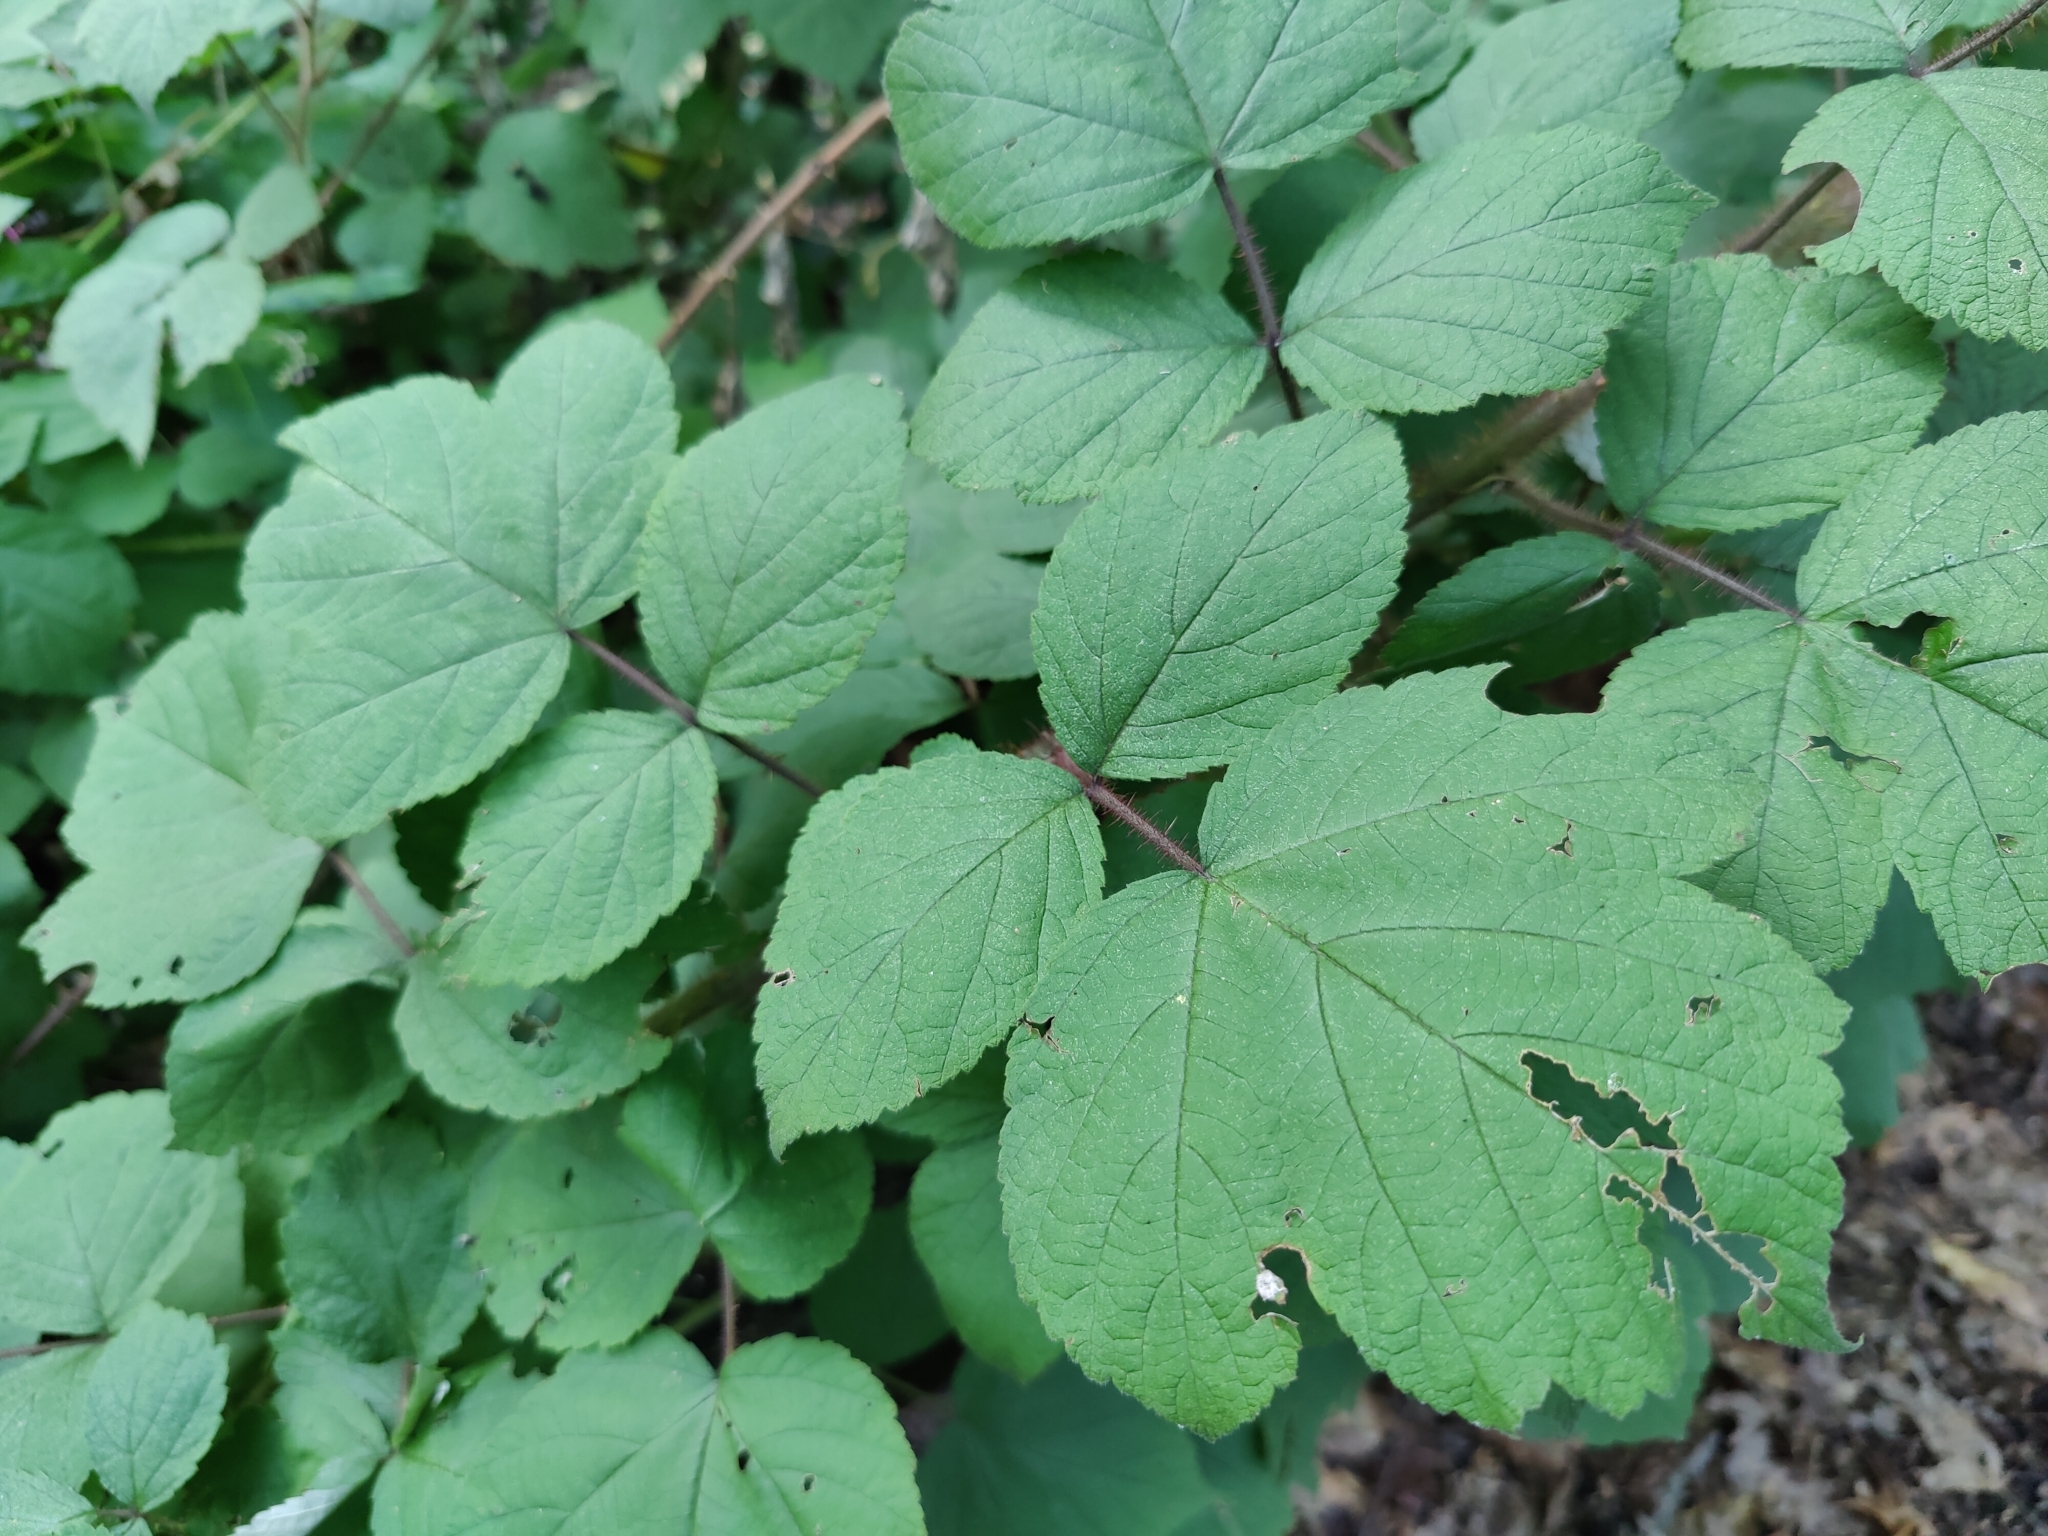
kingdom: Plantae
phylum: Tracheophyta
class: Magnoliopsida
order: Rosales
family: Rosaceae
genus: Rubus
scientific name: Rubus phoenicolasius
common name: Japanese wineberry
